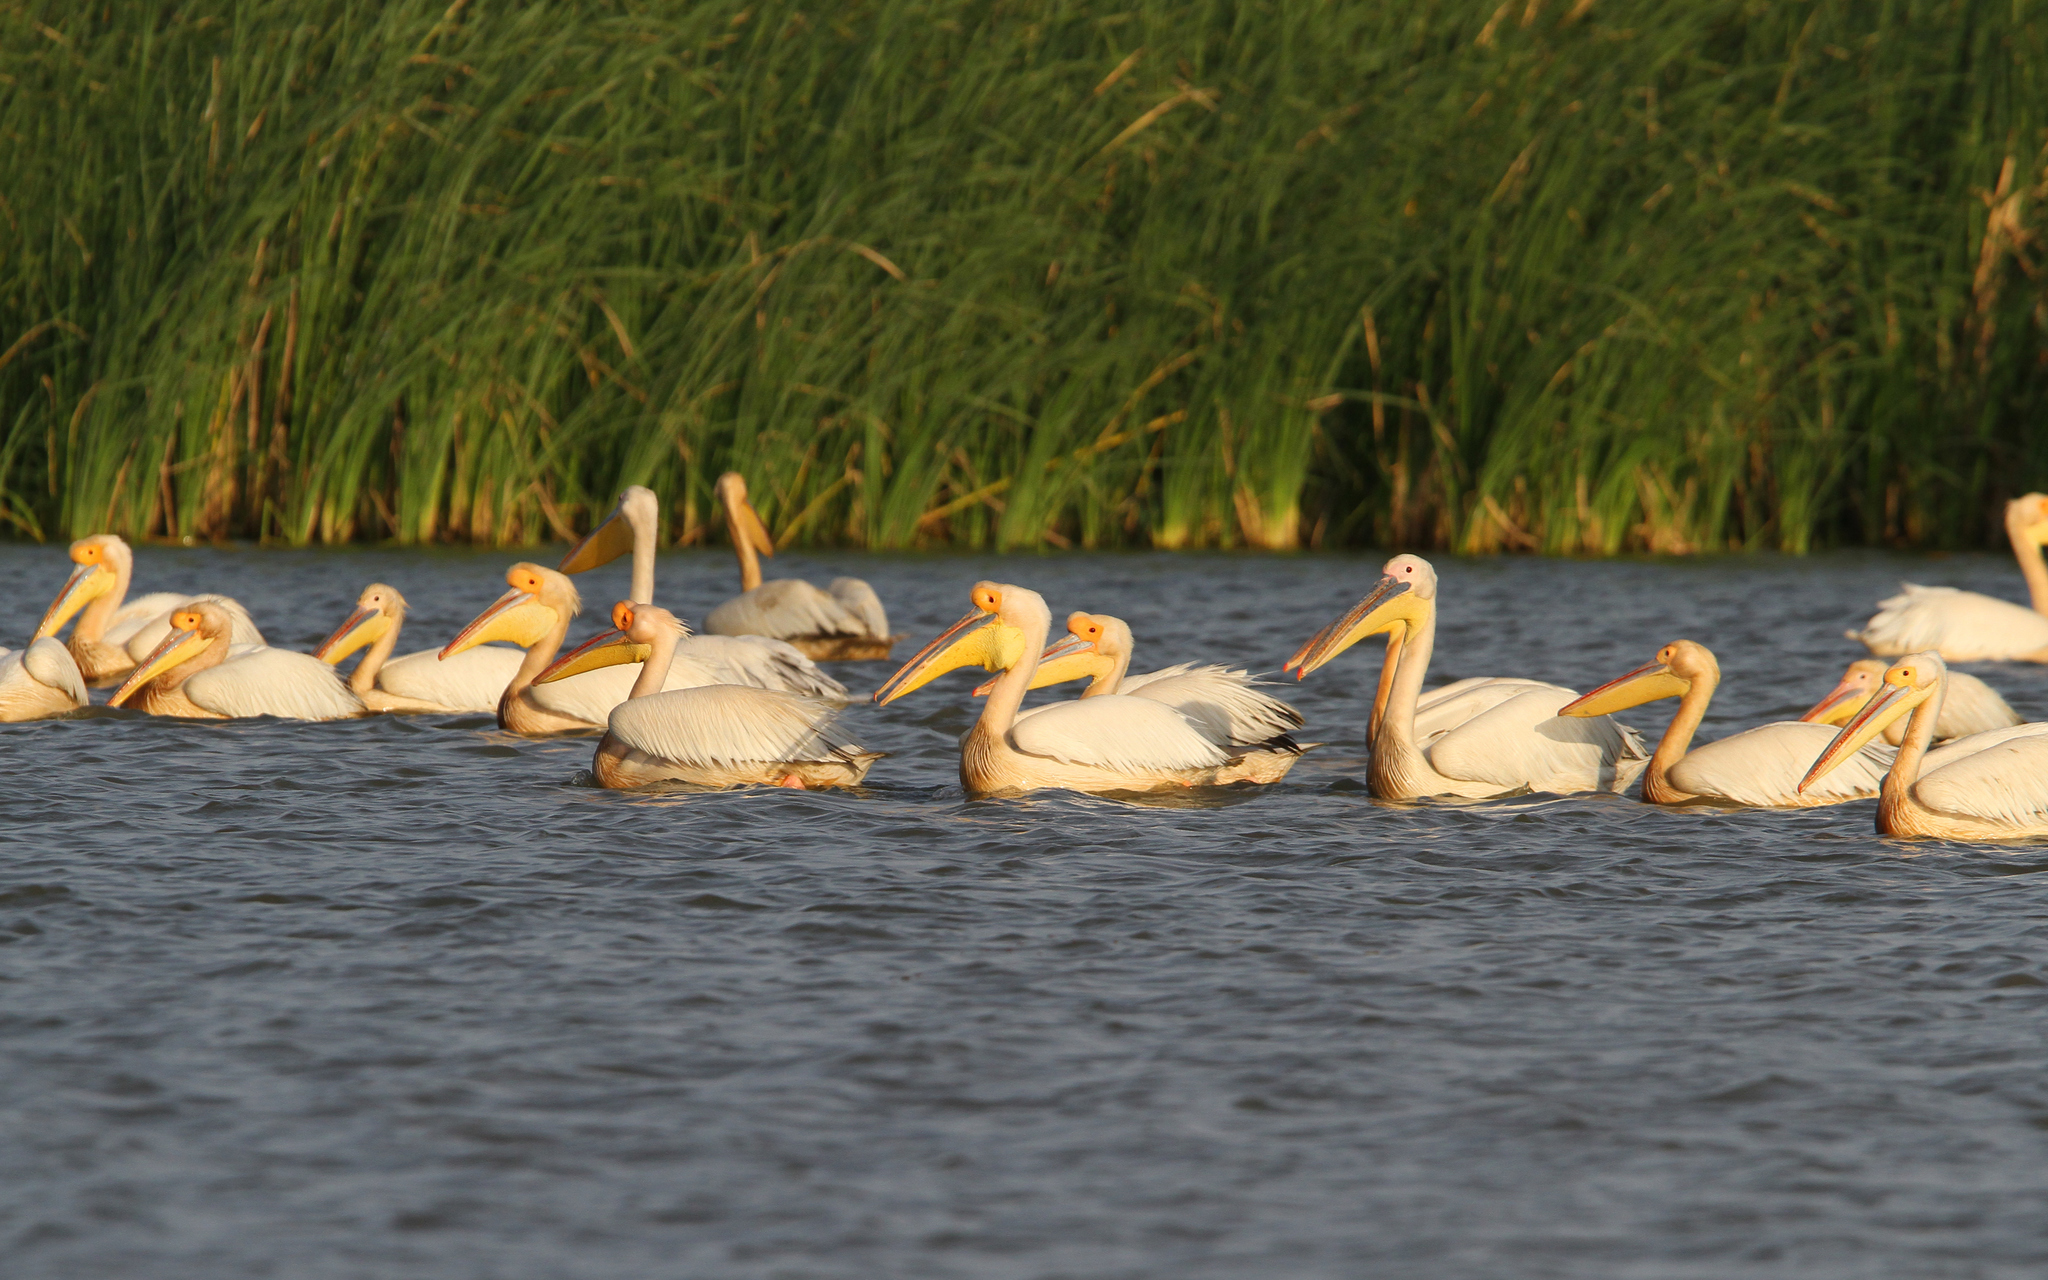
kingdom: Animalia
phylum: Chordata
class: Aves
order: Pelecaniformes
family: Pelecanidae
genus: Pelecanus
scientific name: Pelecanus onocrotalus
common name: Great white pelican
